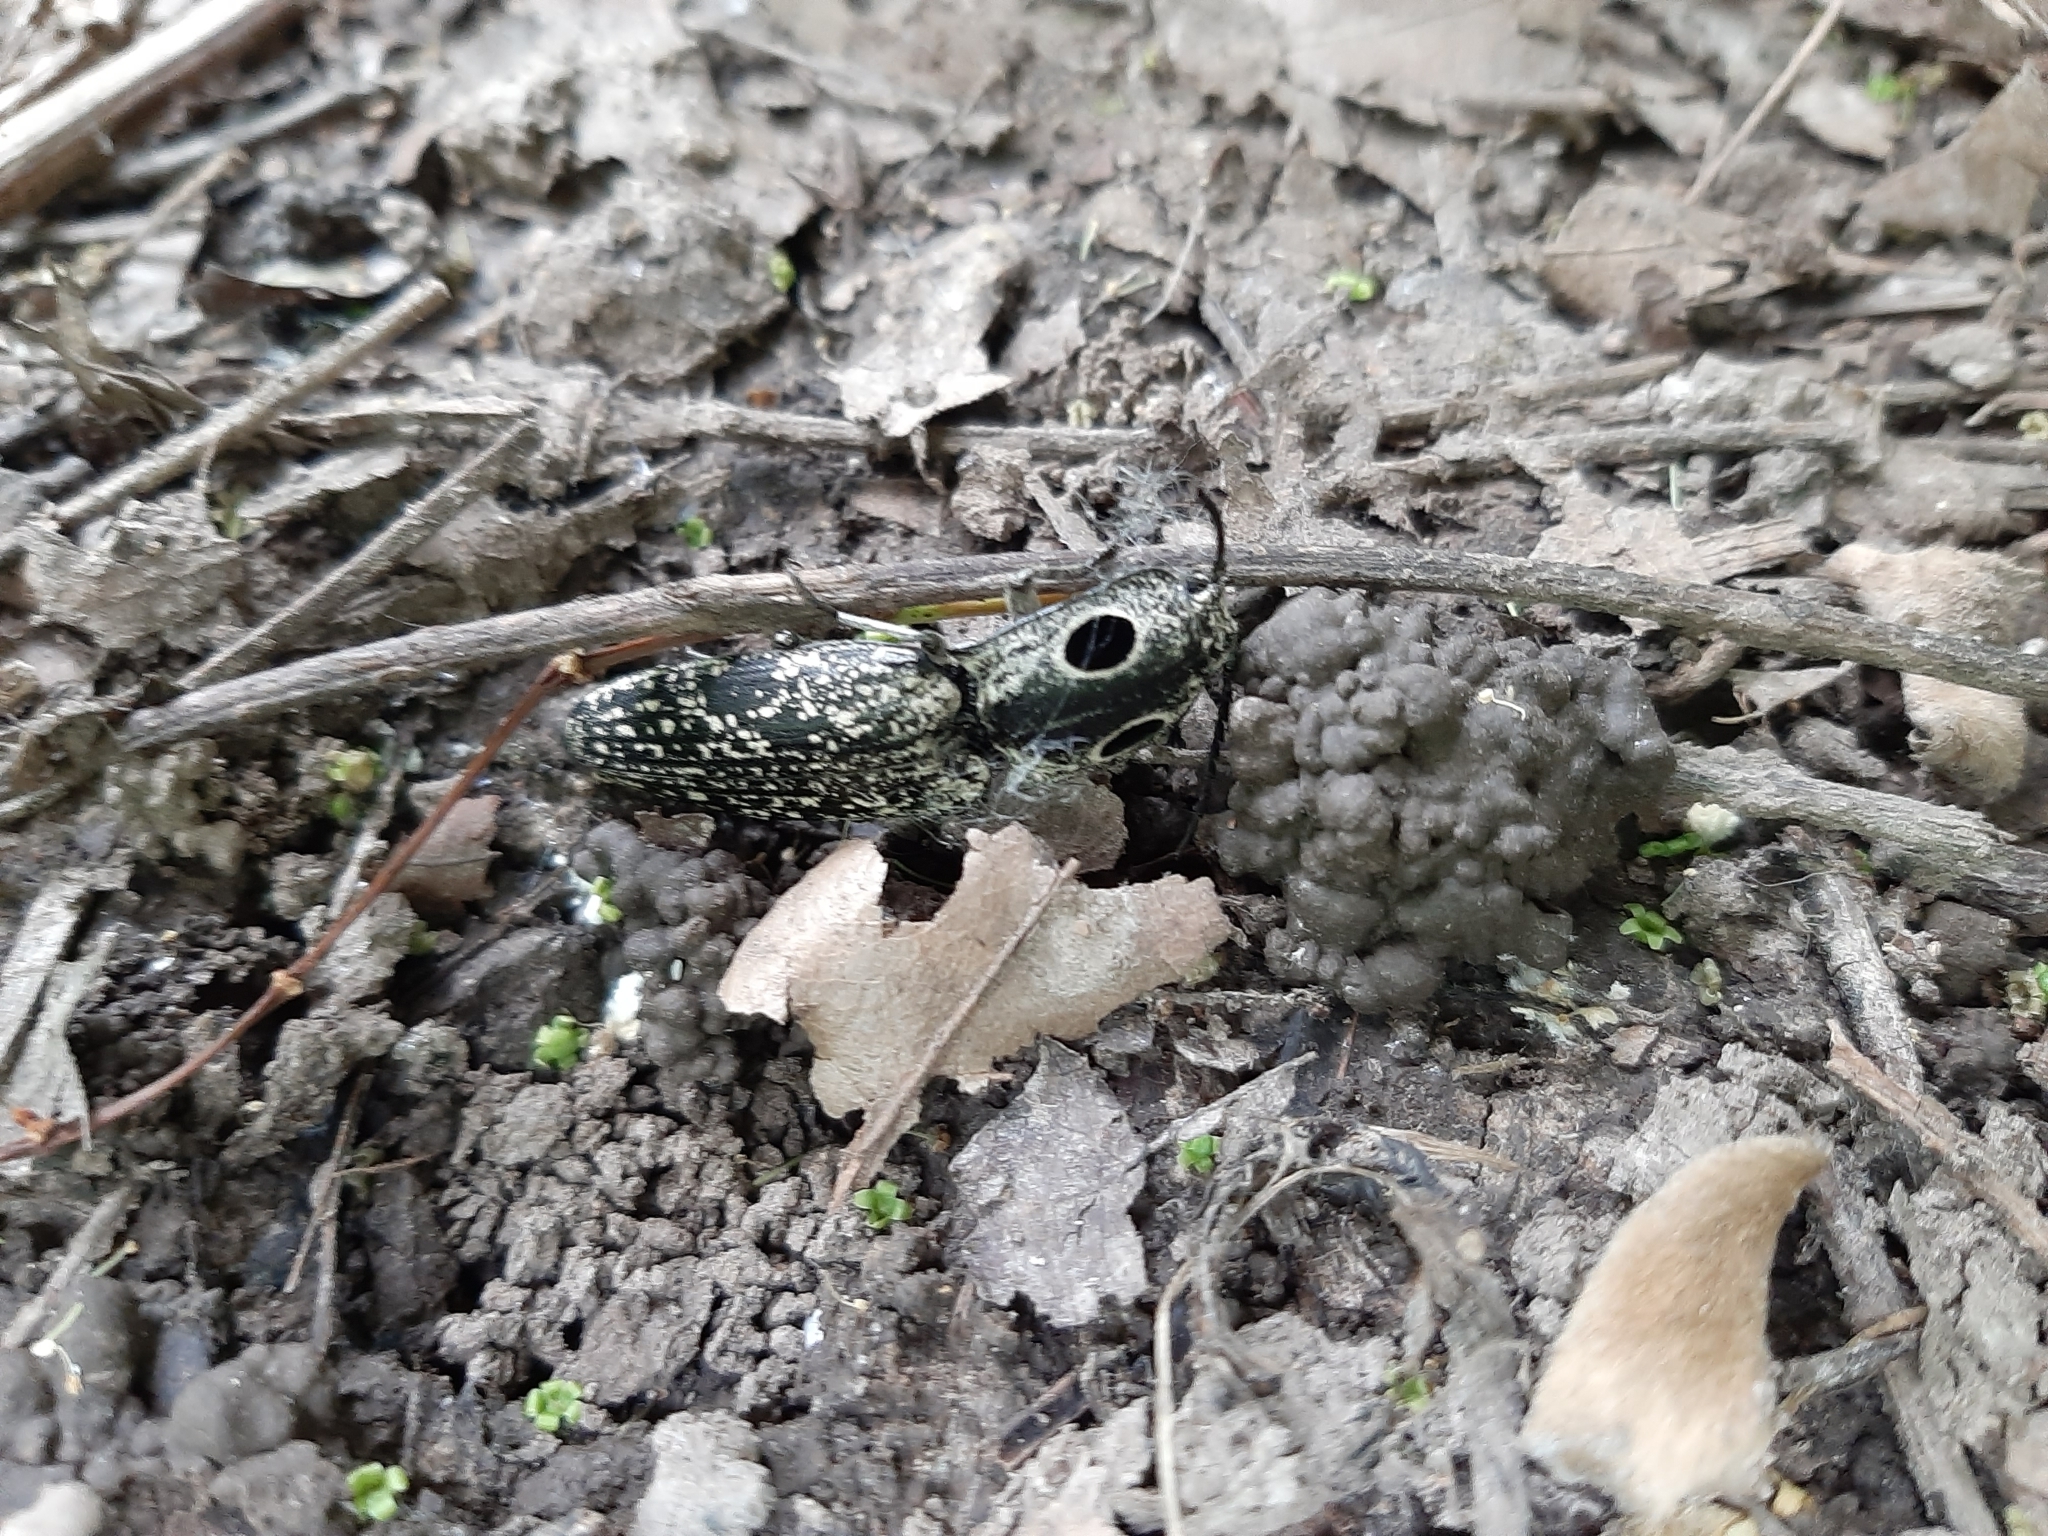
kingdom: Animalia
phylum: Arthropoda
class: Insecta
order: Coleoptera
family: Elateridae
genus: Alaus
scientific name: Alaus oculatus
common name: Eastern eyed click beetle
